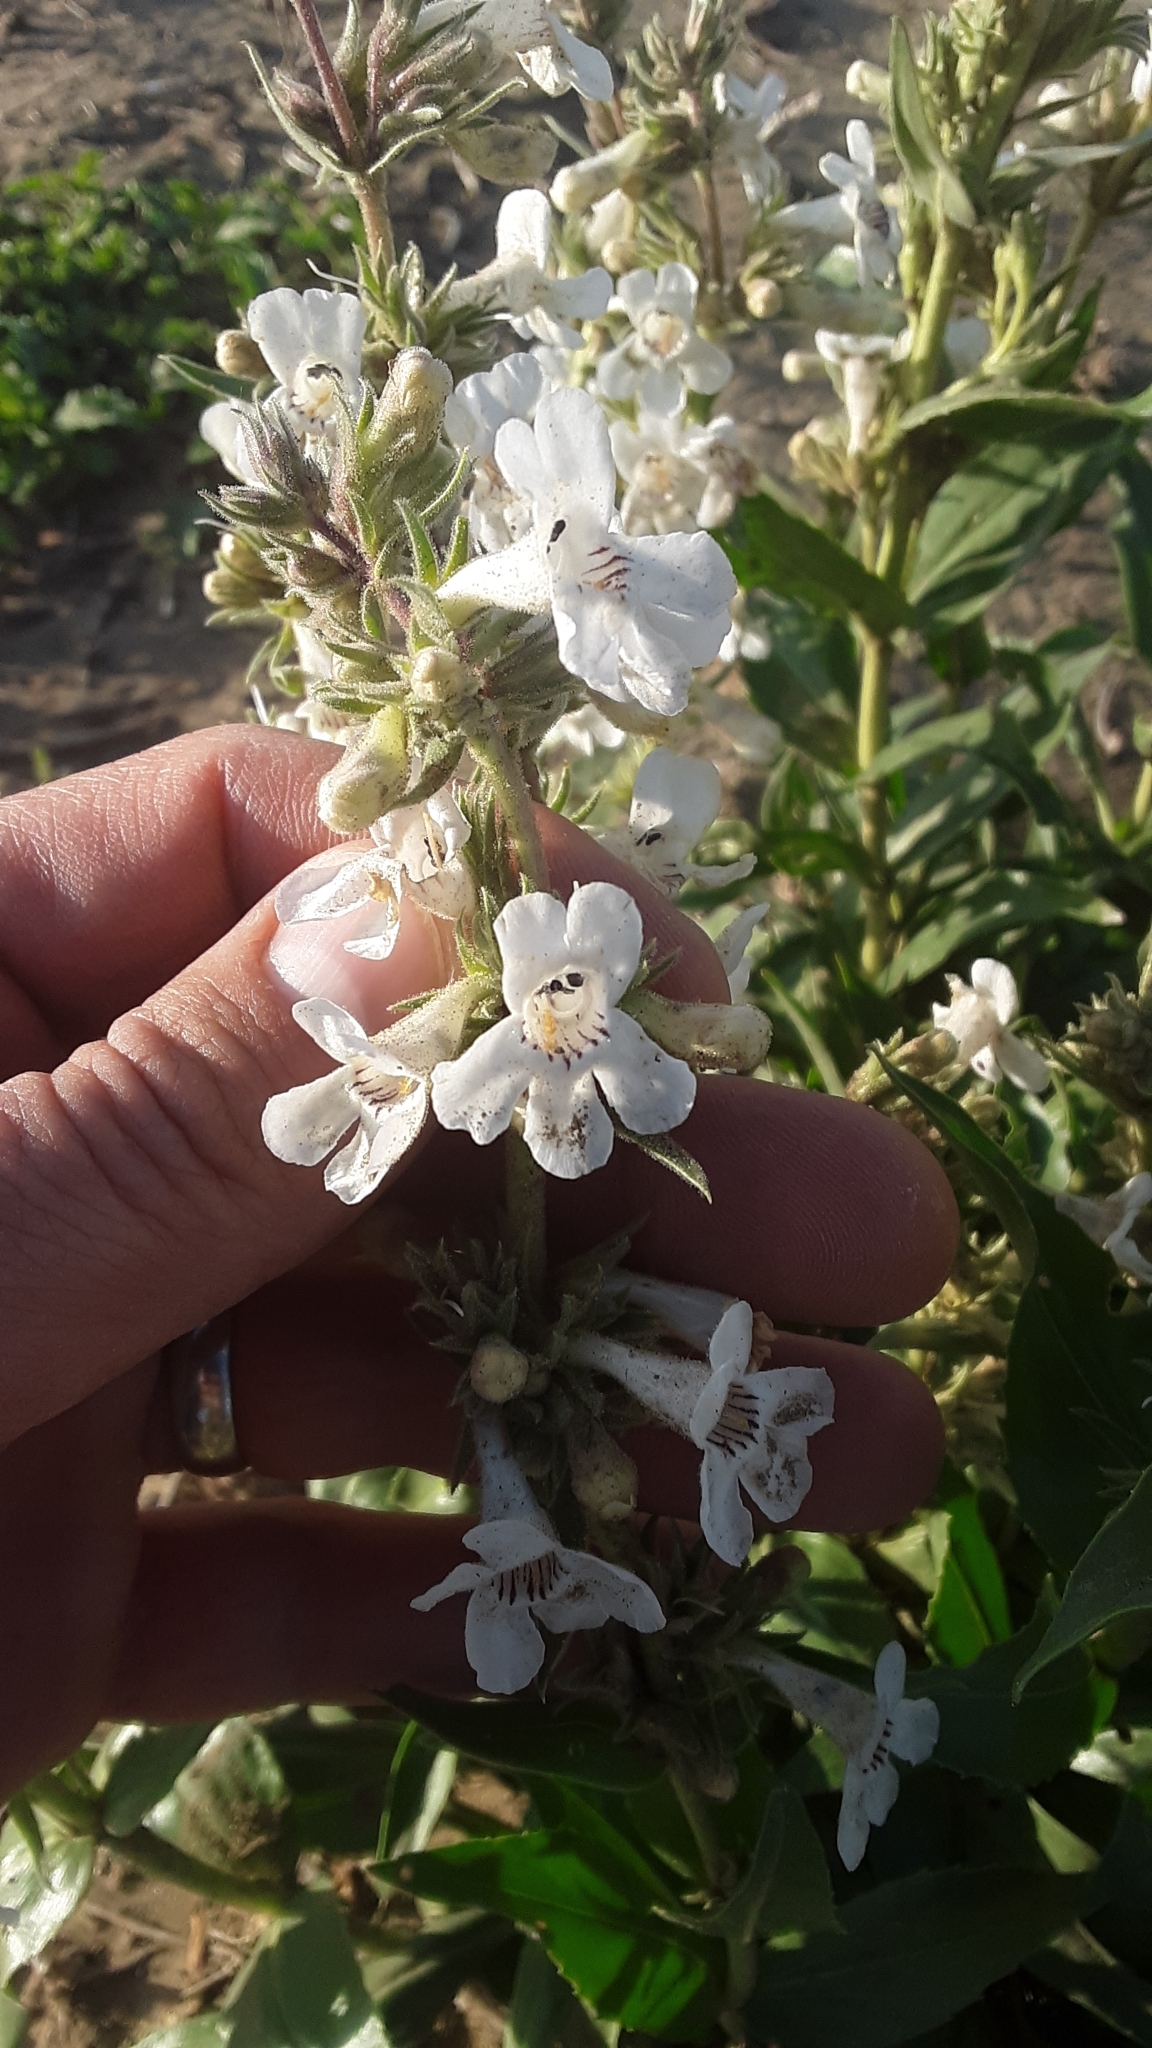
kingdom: Plantae
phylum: Tracheophyta
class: Magnoliopsida
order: Lamiales
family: Plantaginaceae
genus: Penstemon
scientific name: Penstemon albidus
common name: White beardtongue
